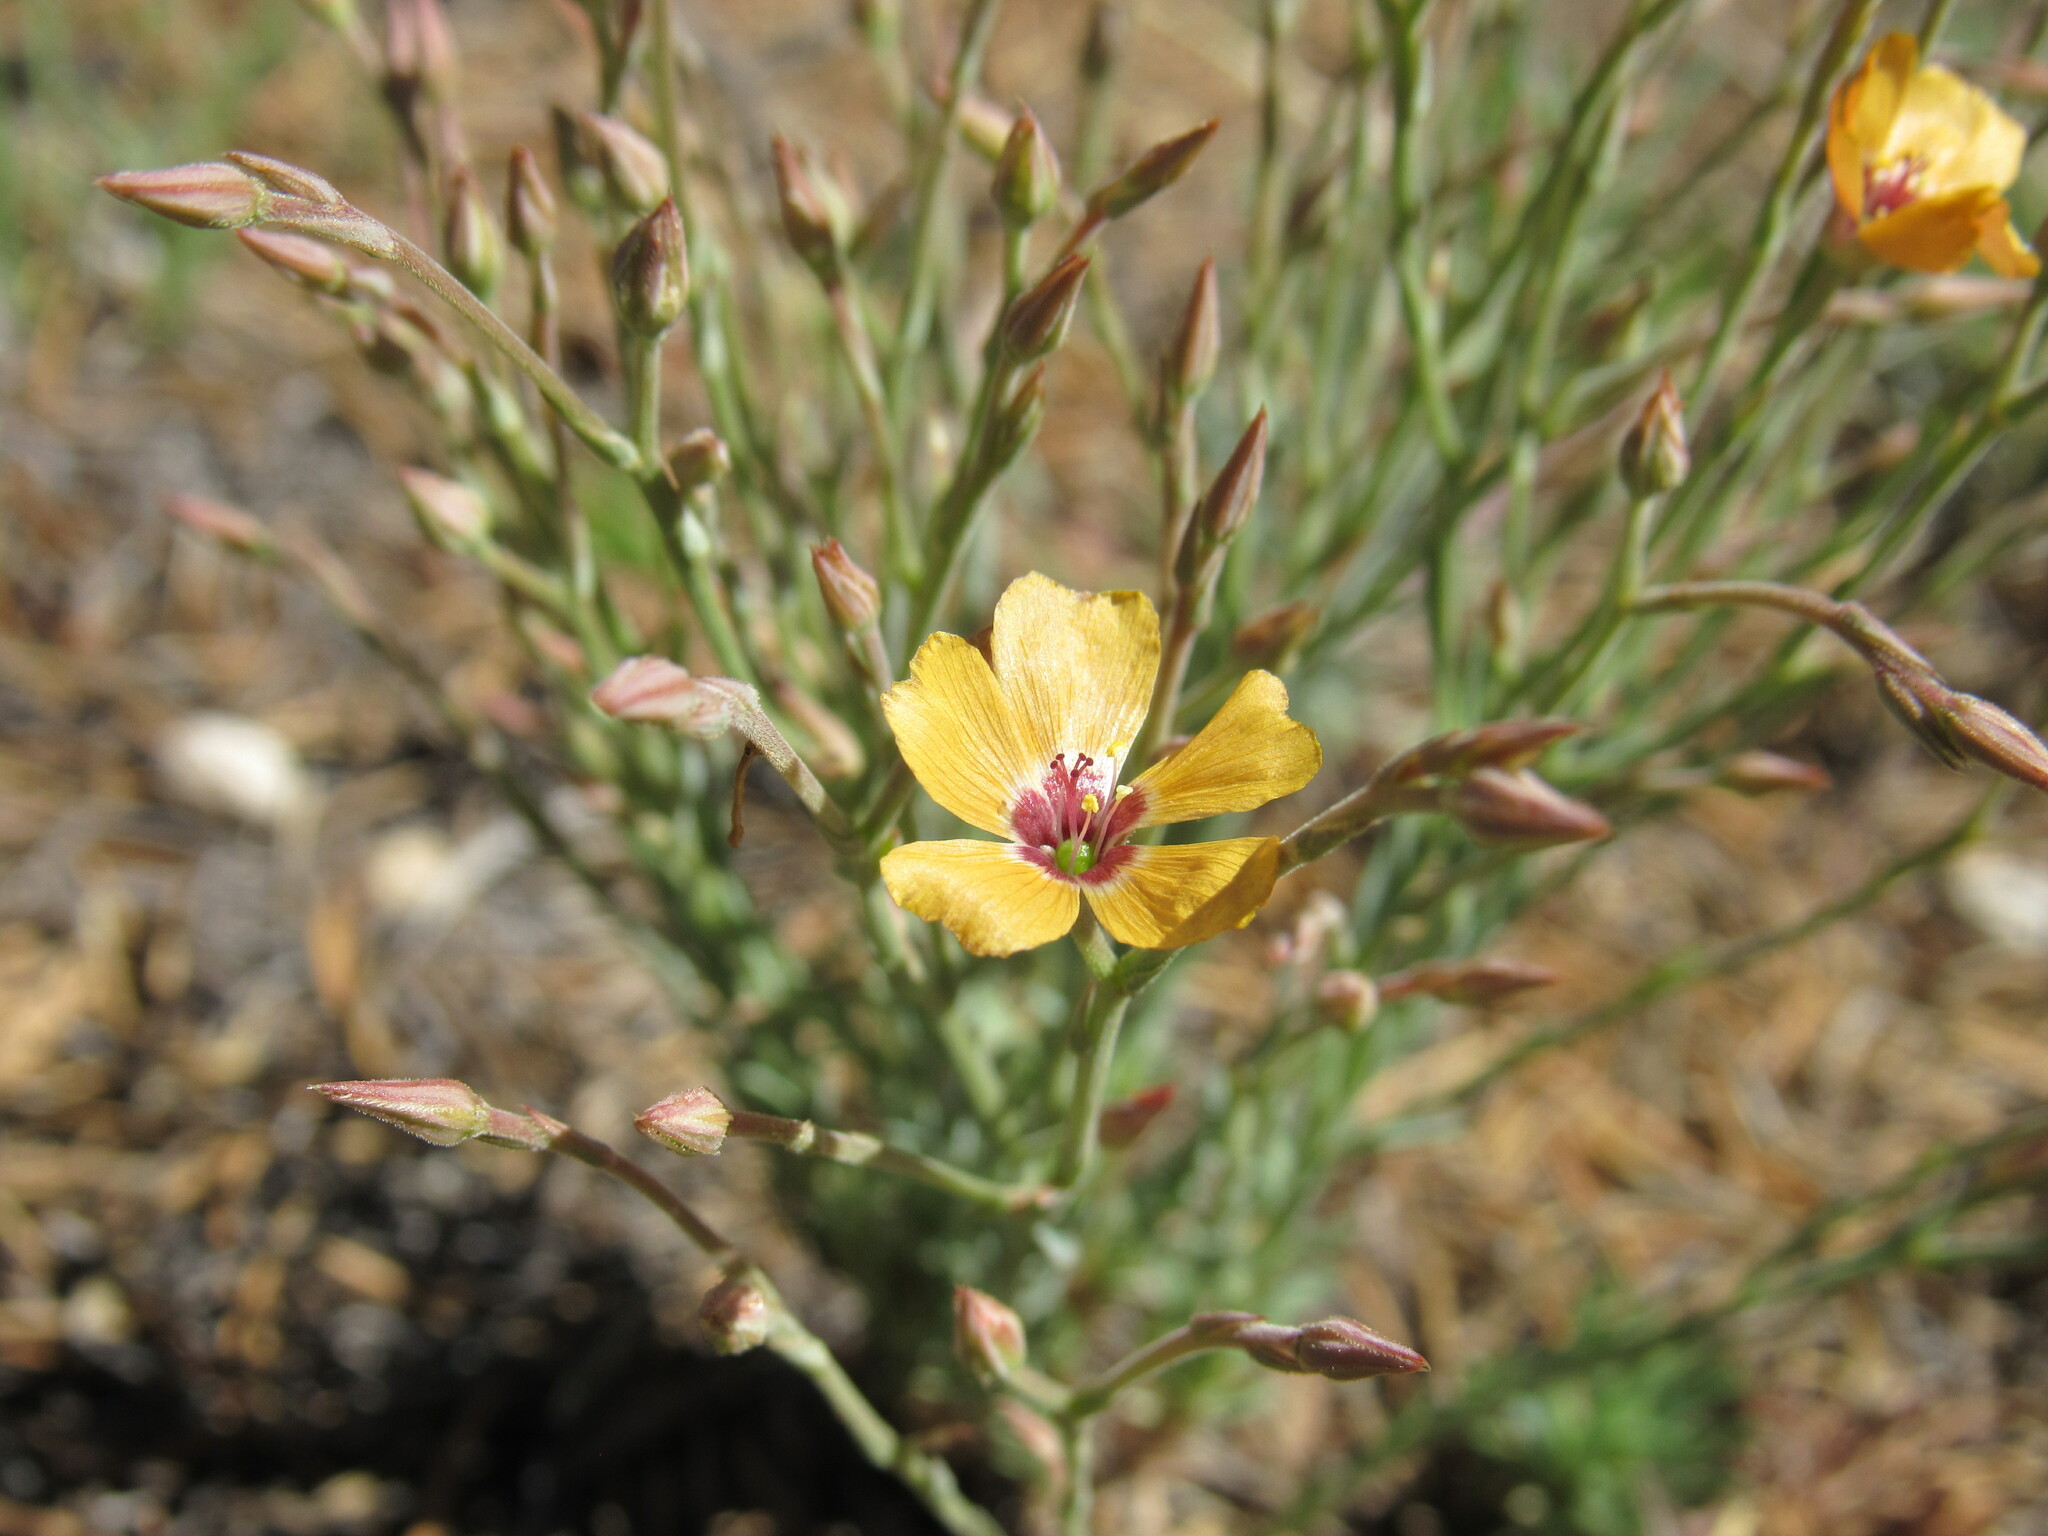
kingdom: Plantae
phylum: Tracheophyta
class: Magnoliopsida
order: Malpighiales
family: Linaceae
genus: Linum
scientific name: Linum puberulum
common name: Plains flax
